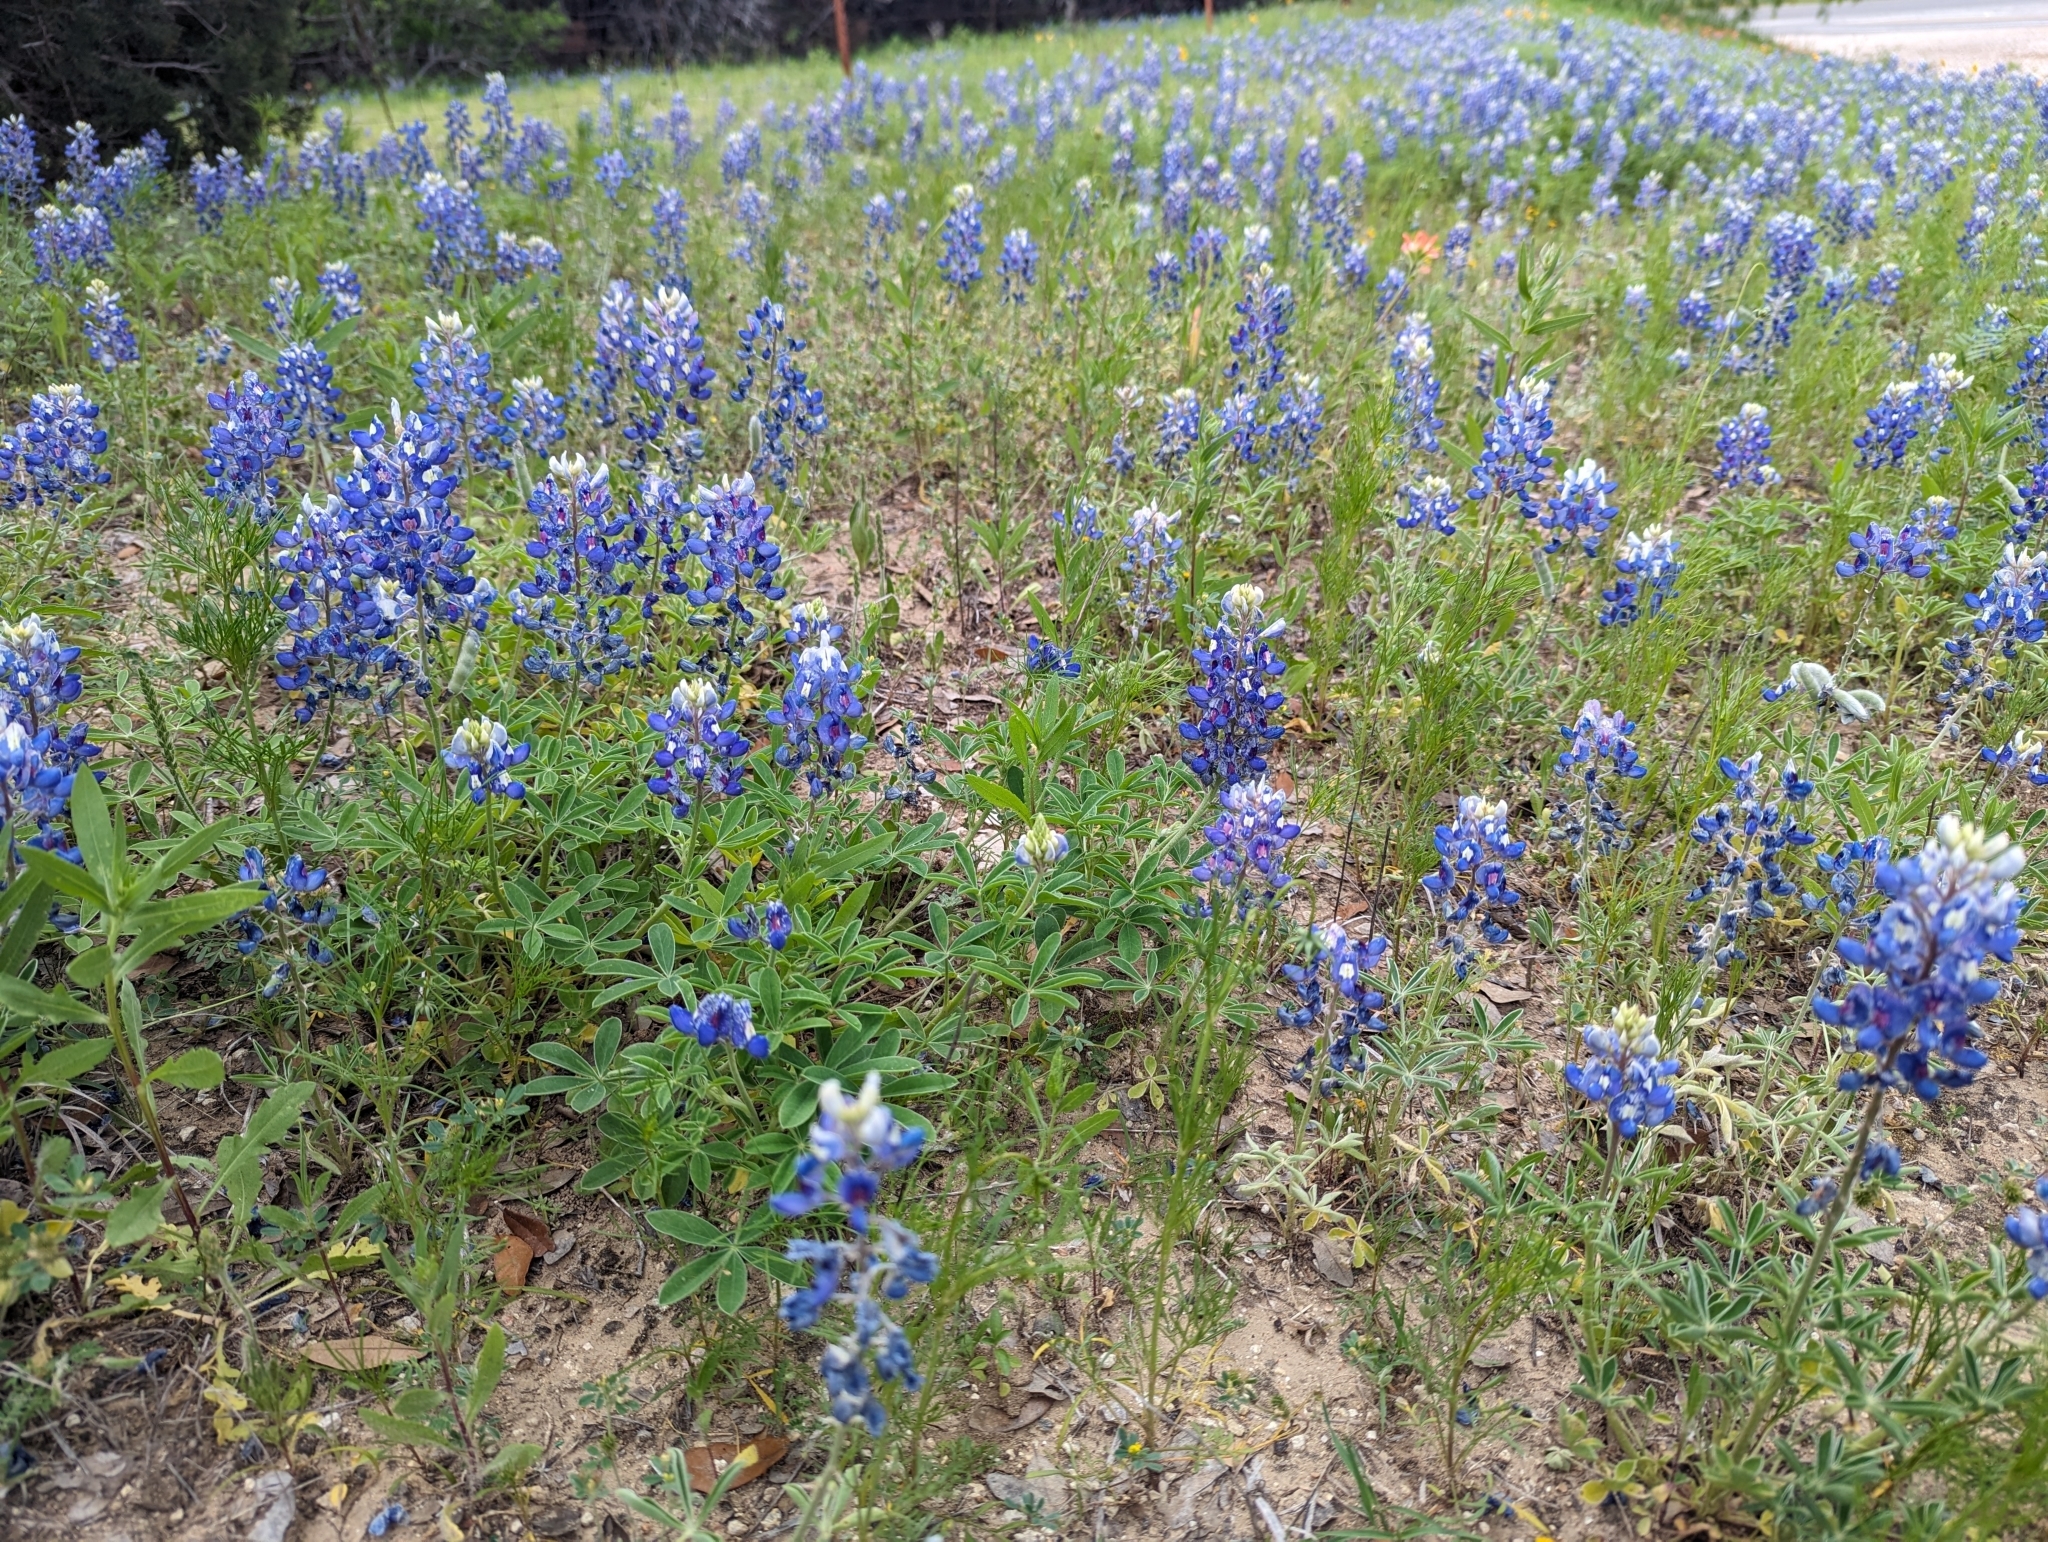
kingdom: Plantae
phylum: Tracheophyta
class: Magnoliopsida
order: Fabales
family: Fabaceae
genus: Lupinus
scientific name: Lupinus texensis
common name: Texas bluebonnet
